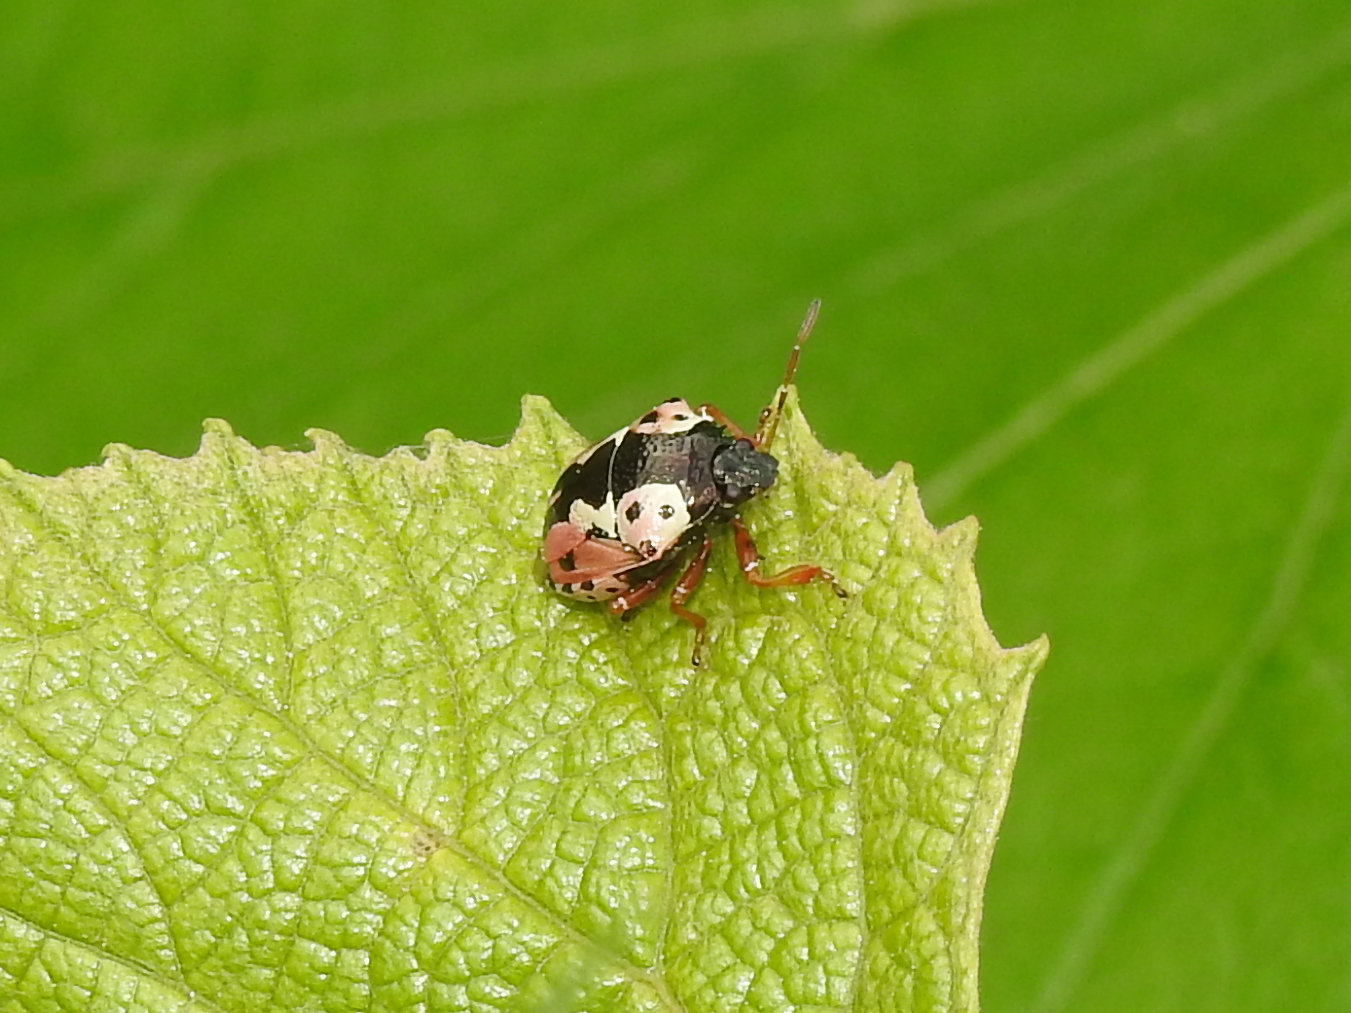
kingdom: Animalia
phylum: Arthropoda
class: Insecta
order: Hemiptera
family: Pentatomidae
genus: Stiretrus
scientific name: Stiretrus anchorago
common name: Anchor stink bug
